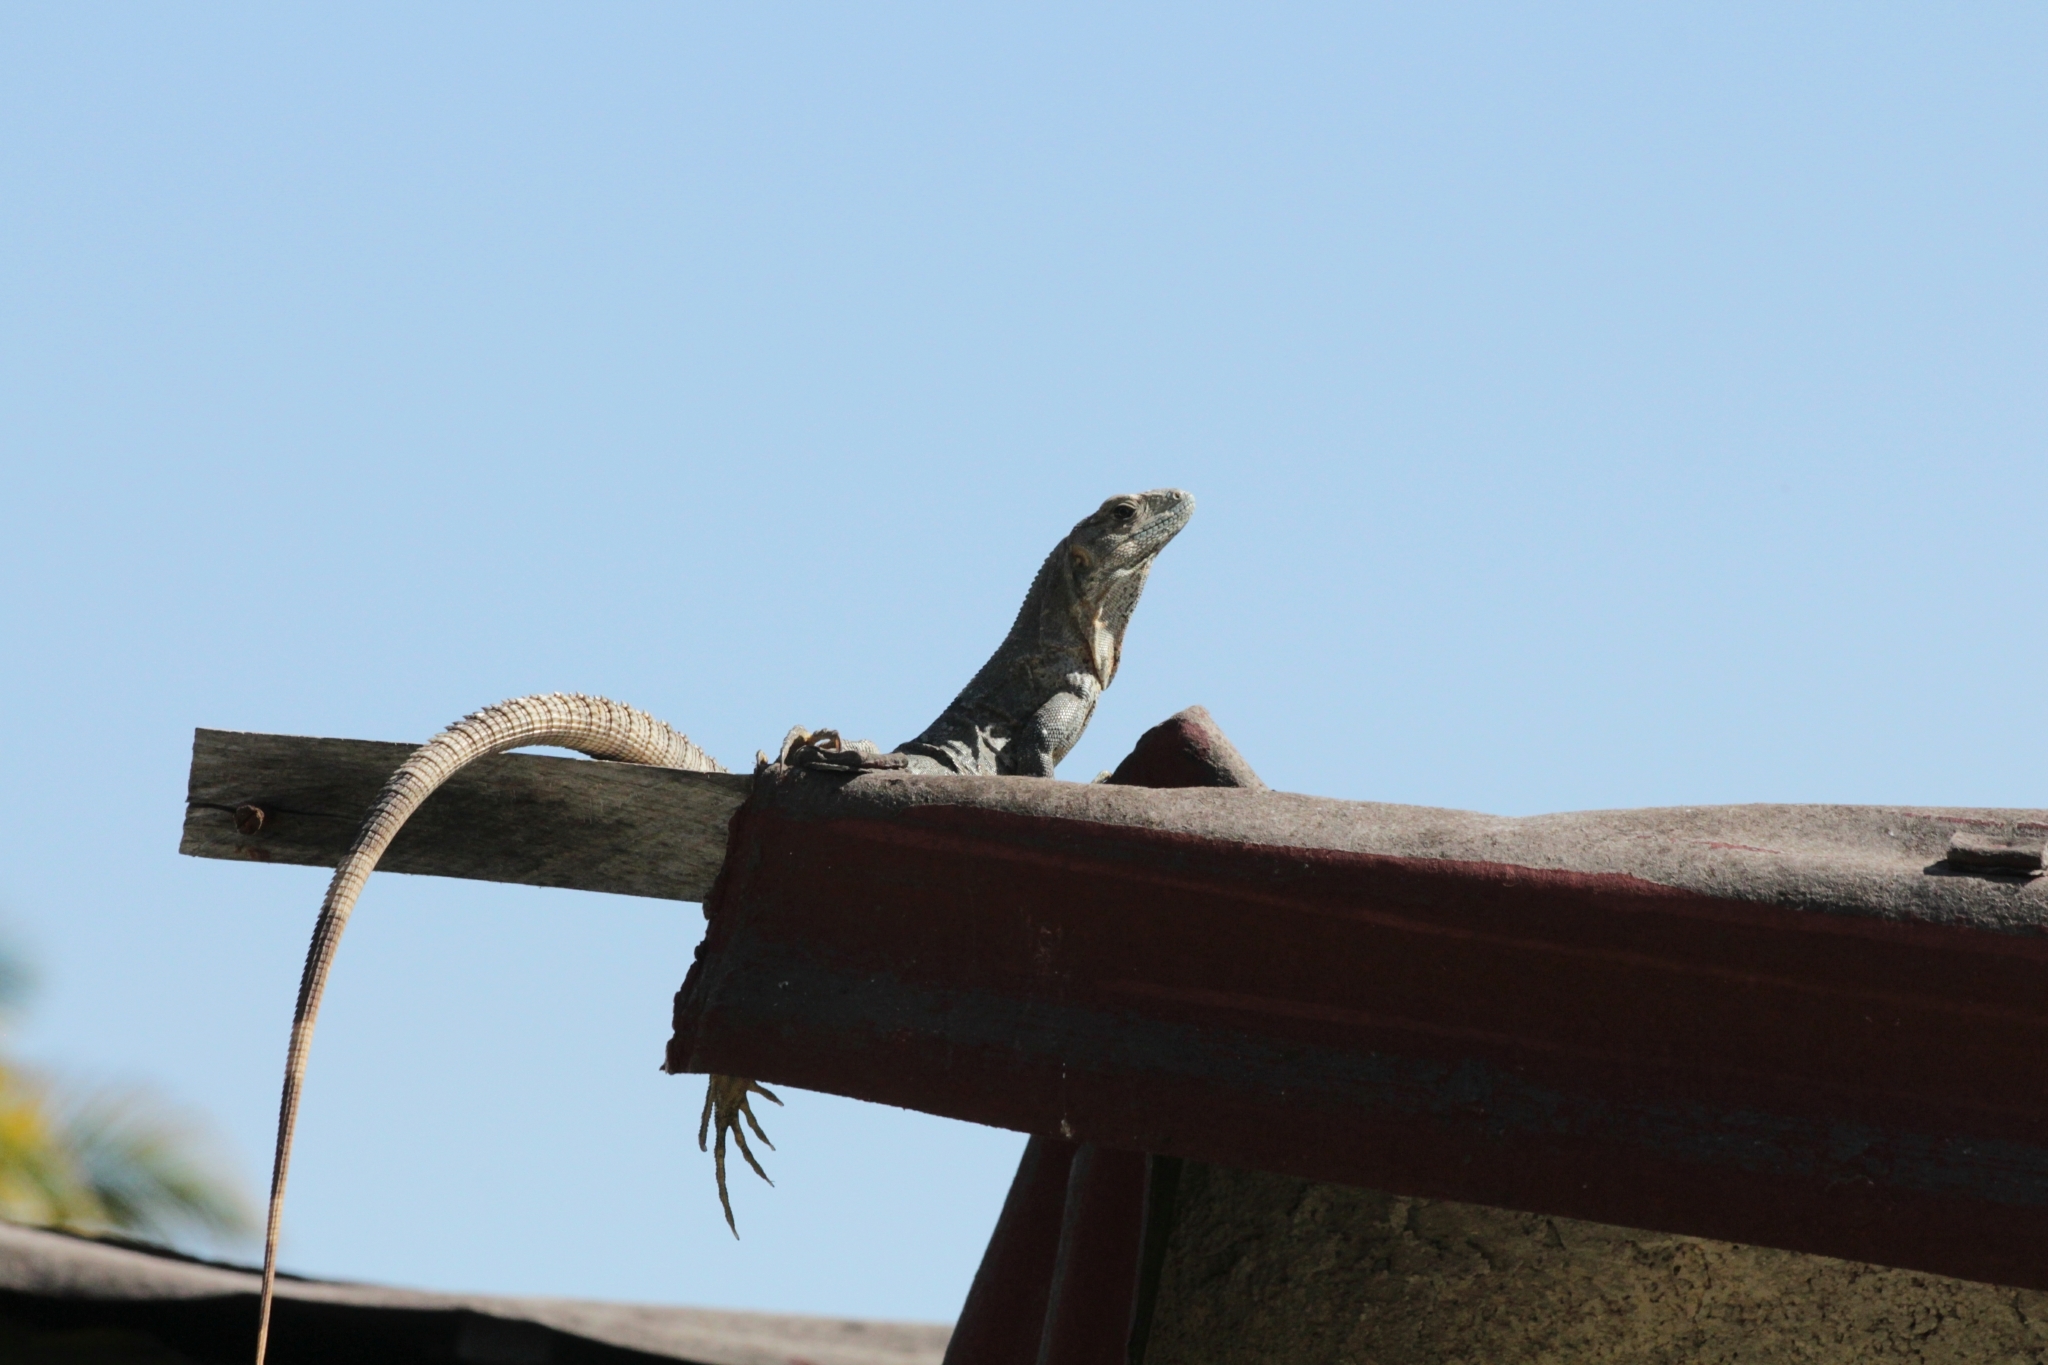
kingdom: Animalia
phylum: Chordata
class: Squamata
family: Iguanidae
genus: Ctenosaura
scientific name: Ctenosaura similis
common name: Black spiny-tailed iguana
